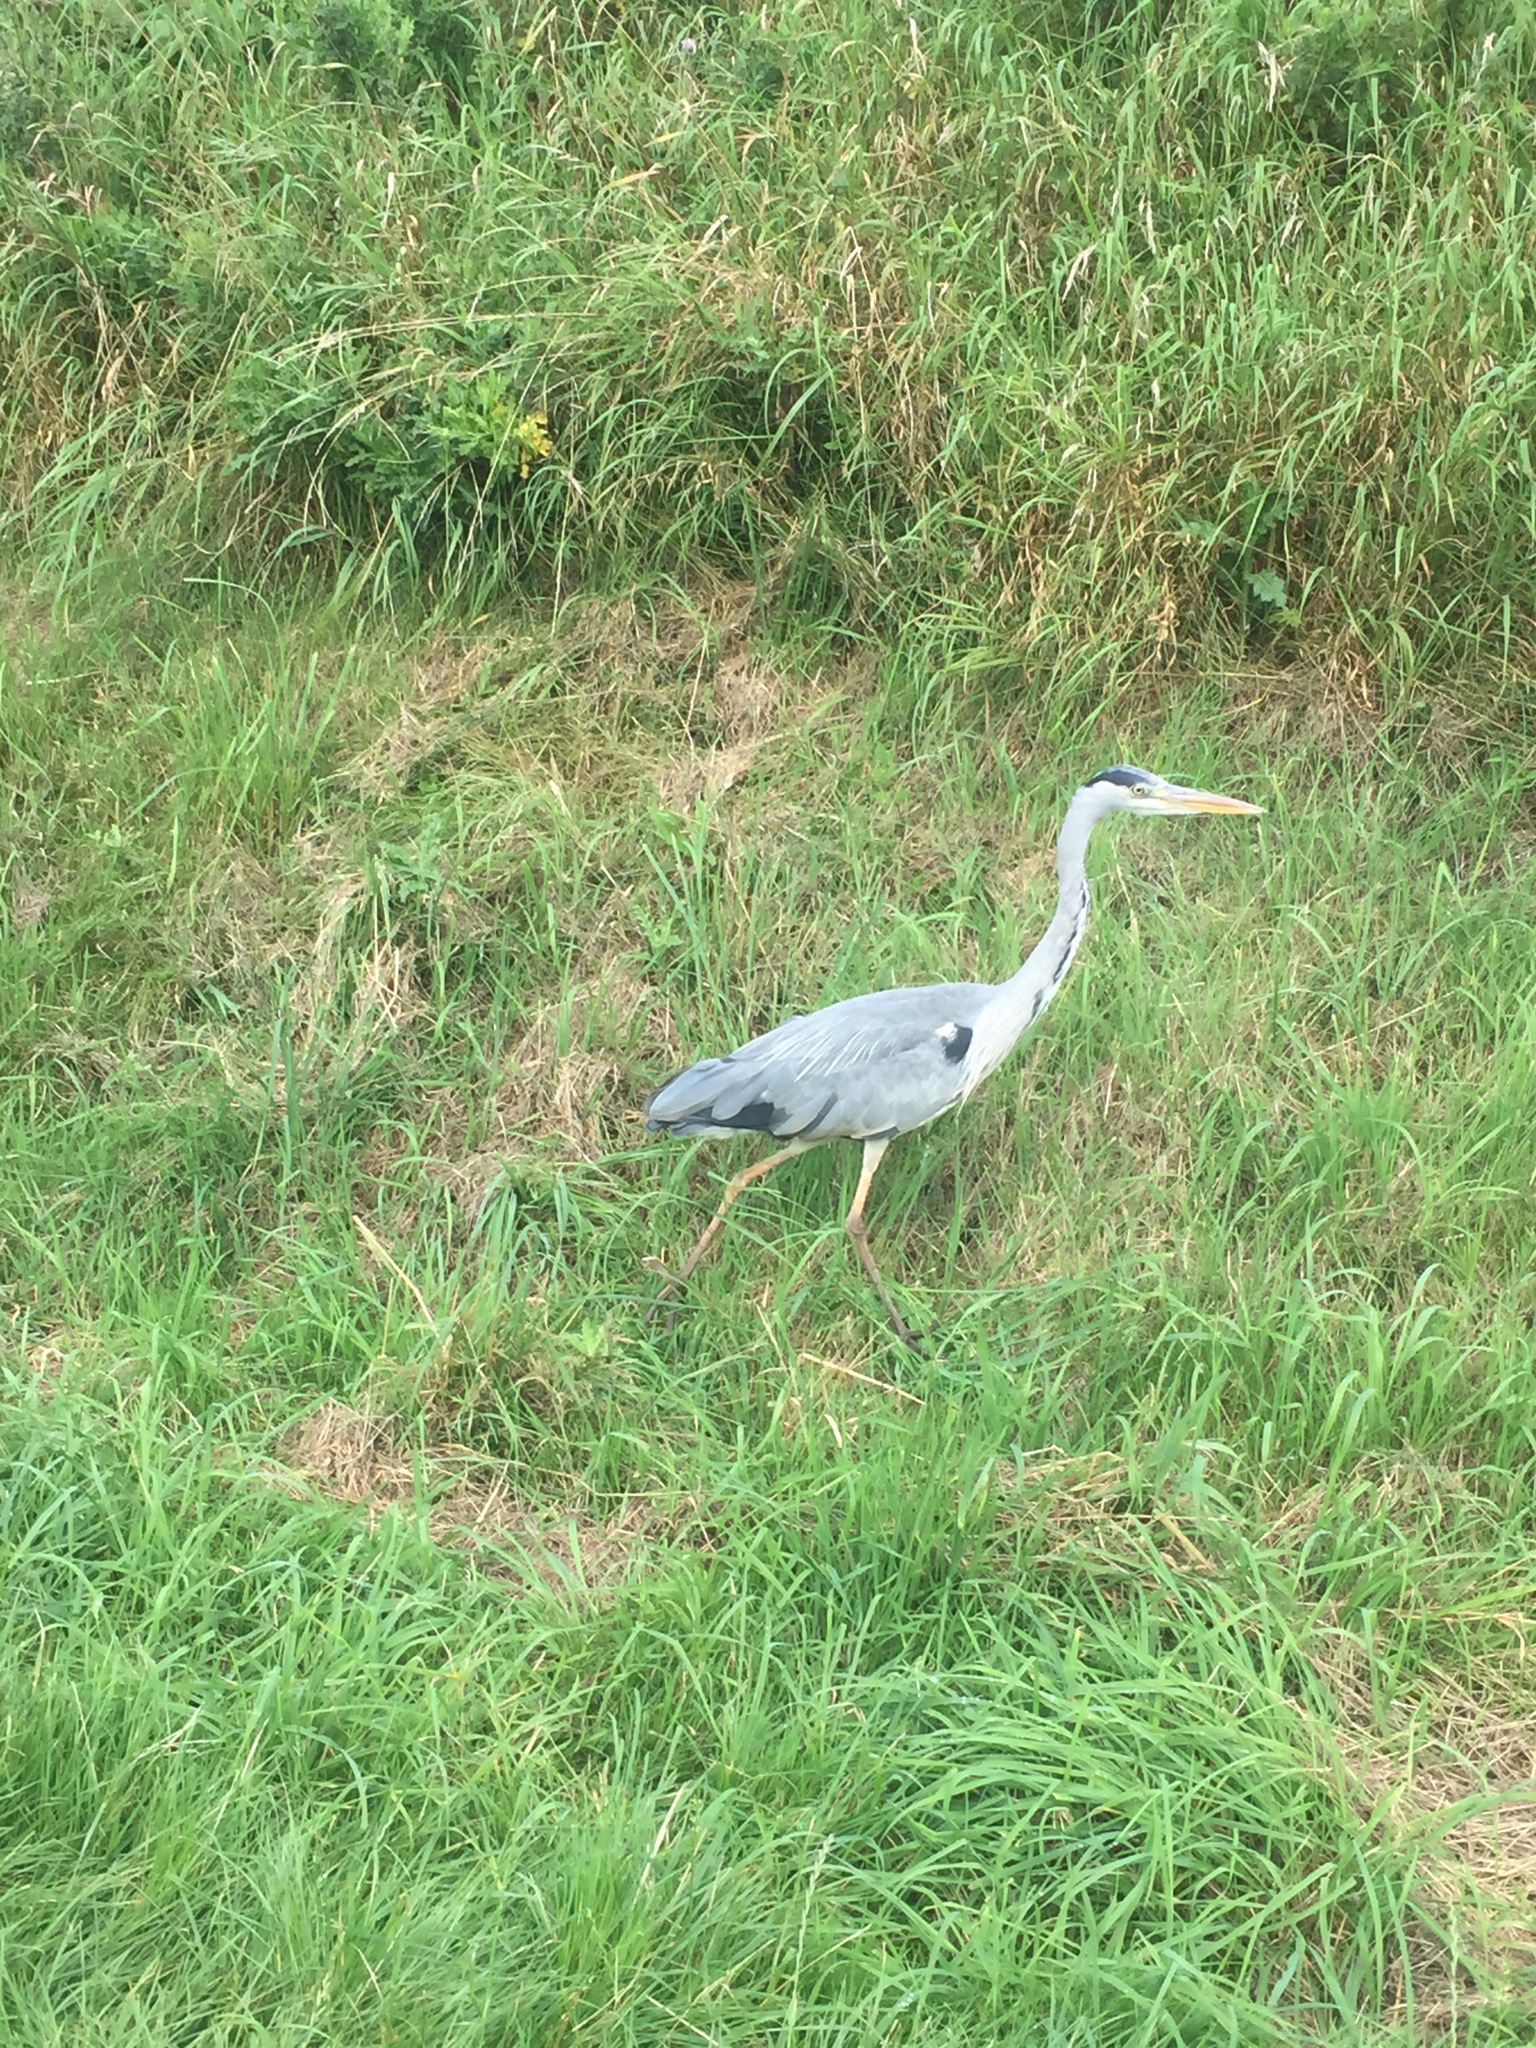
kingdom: Animalia
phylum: Chordata
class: Aves
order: Pelecaniformes
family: Ardeidae
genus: Ardea
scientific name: Ardea cinerea
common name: Grey heron
